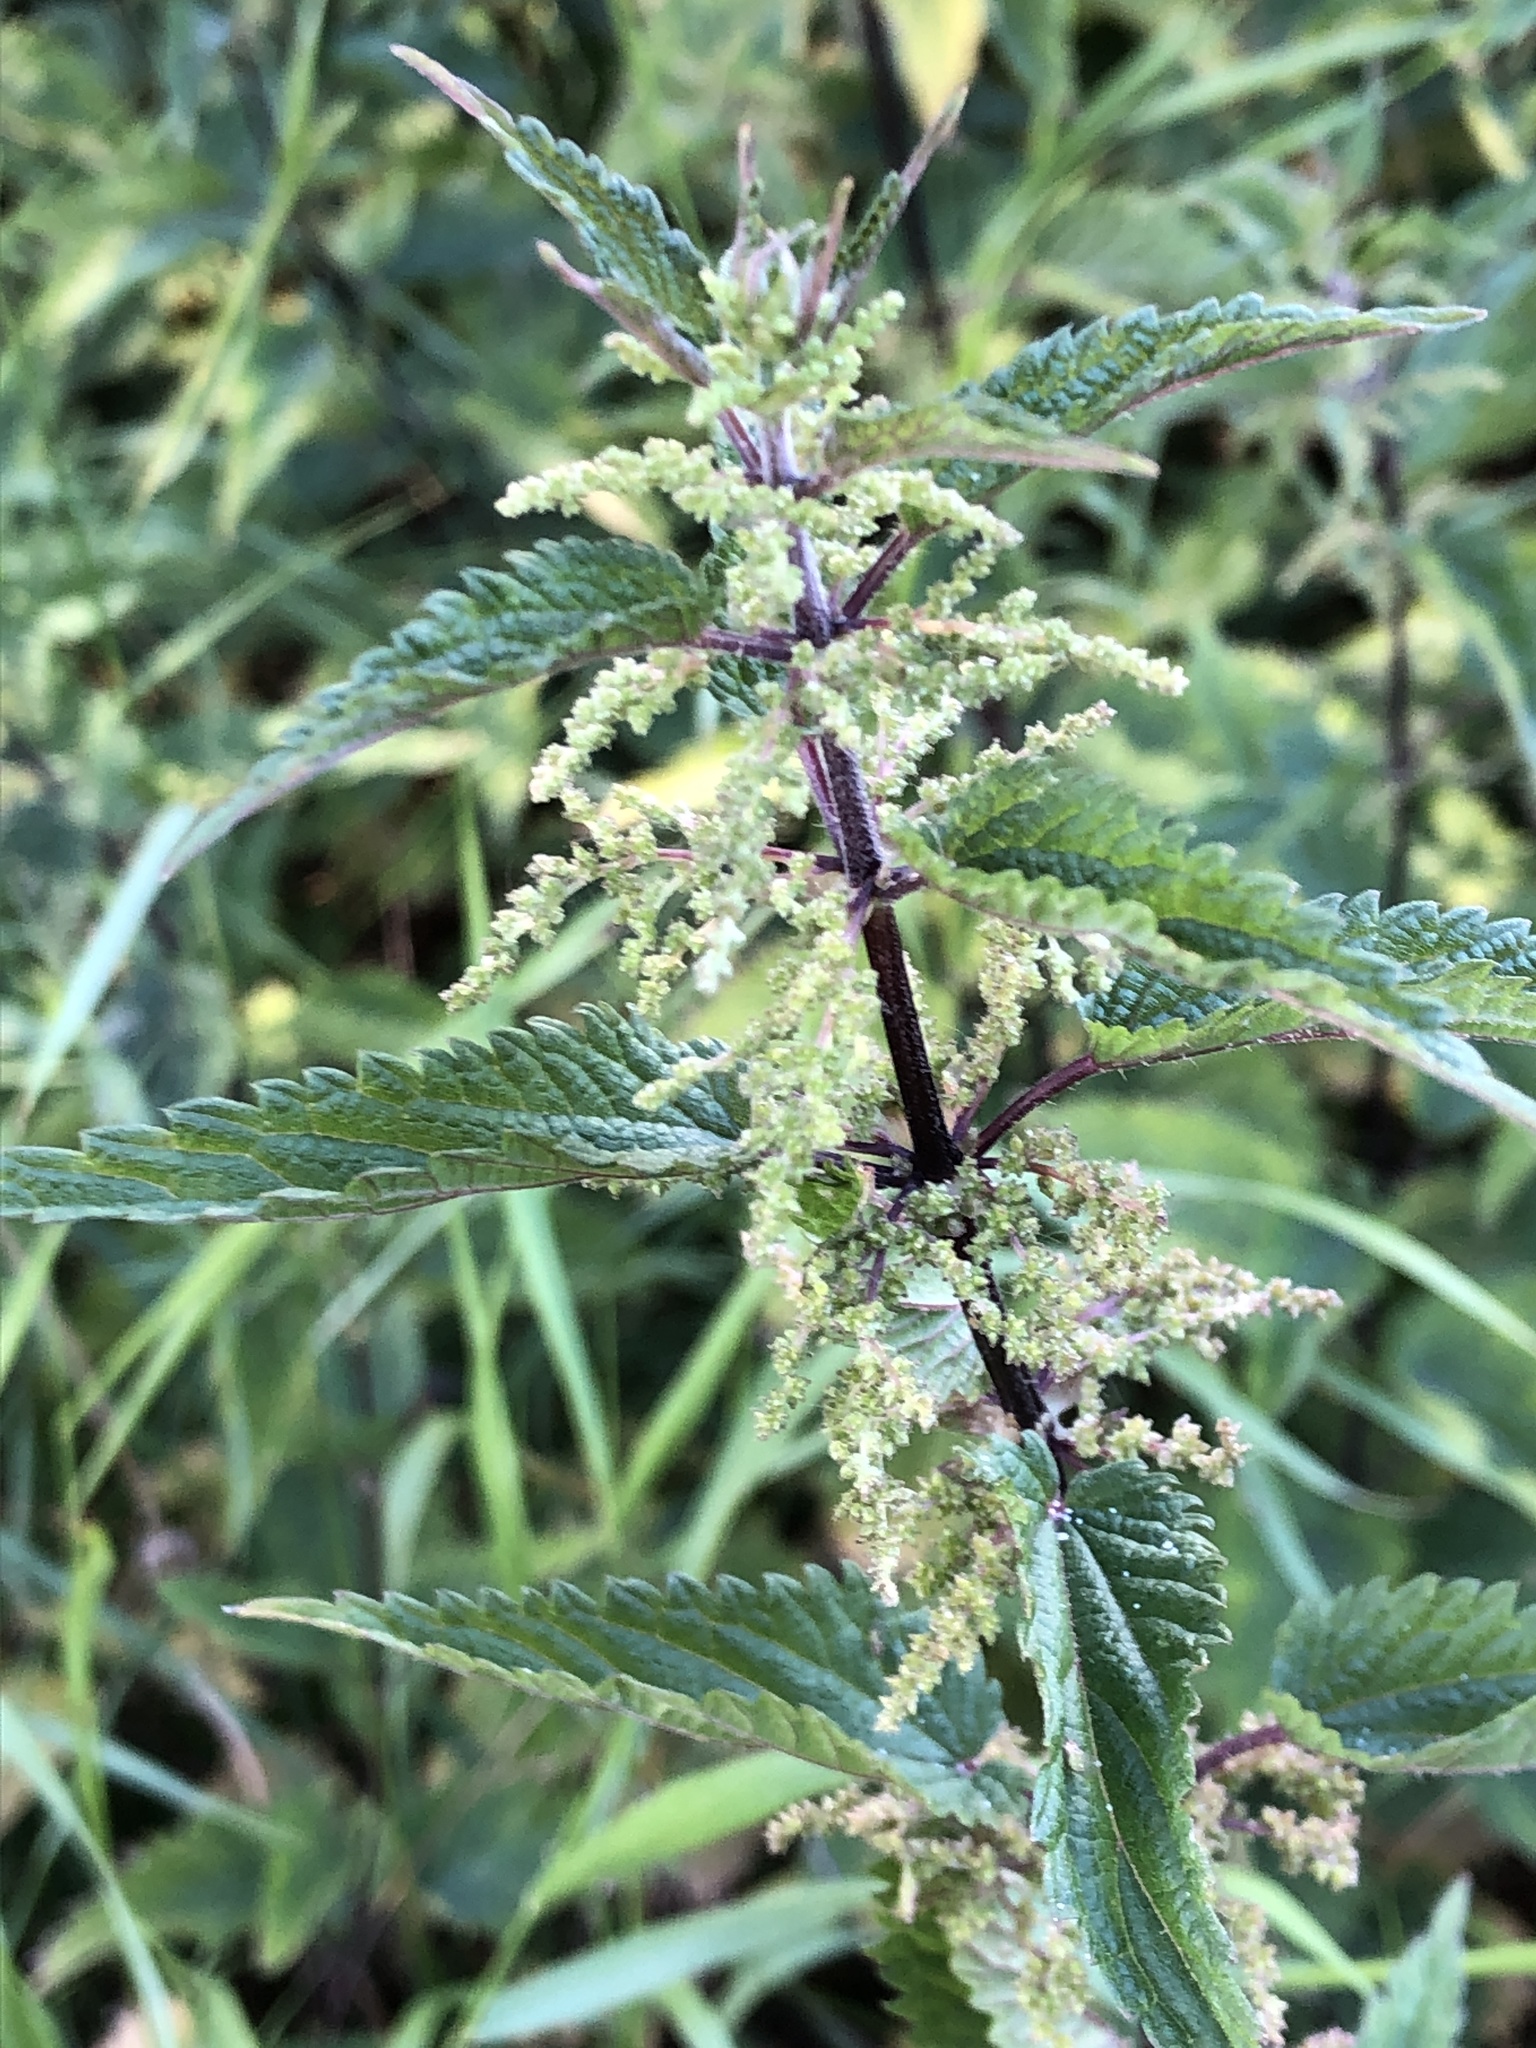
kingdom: Plantae
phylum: Tracheophyta
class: Magnoliopsida
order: Rosales
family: Urticaceae
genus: Urtica
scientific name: Urtica dioica
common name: Common nettle
